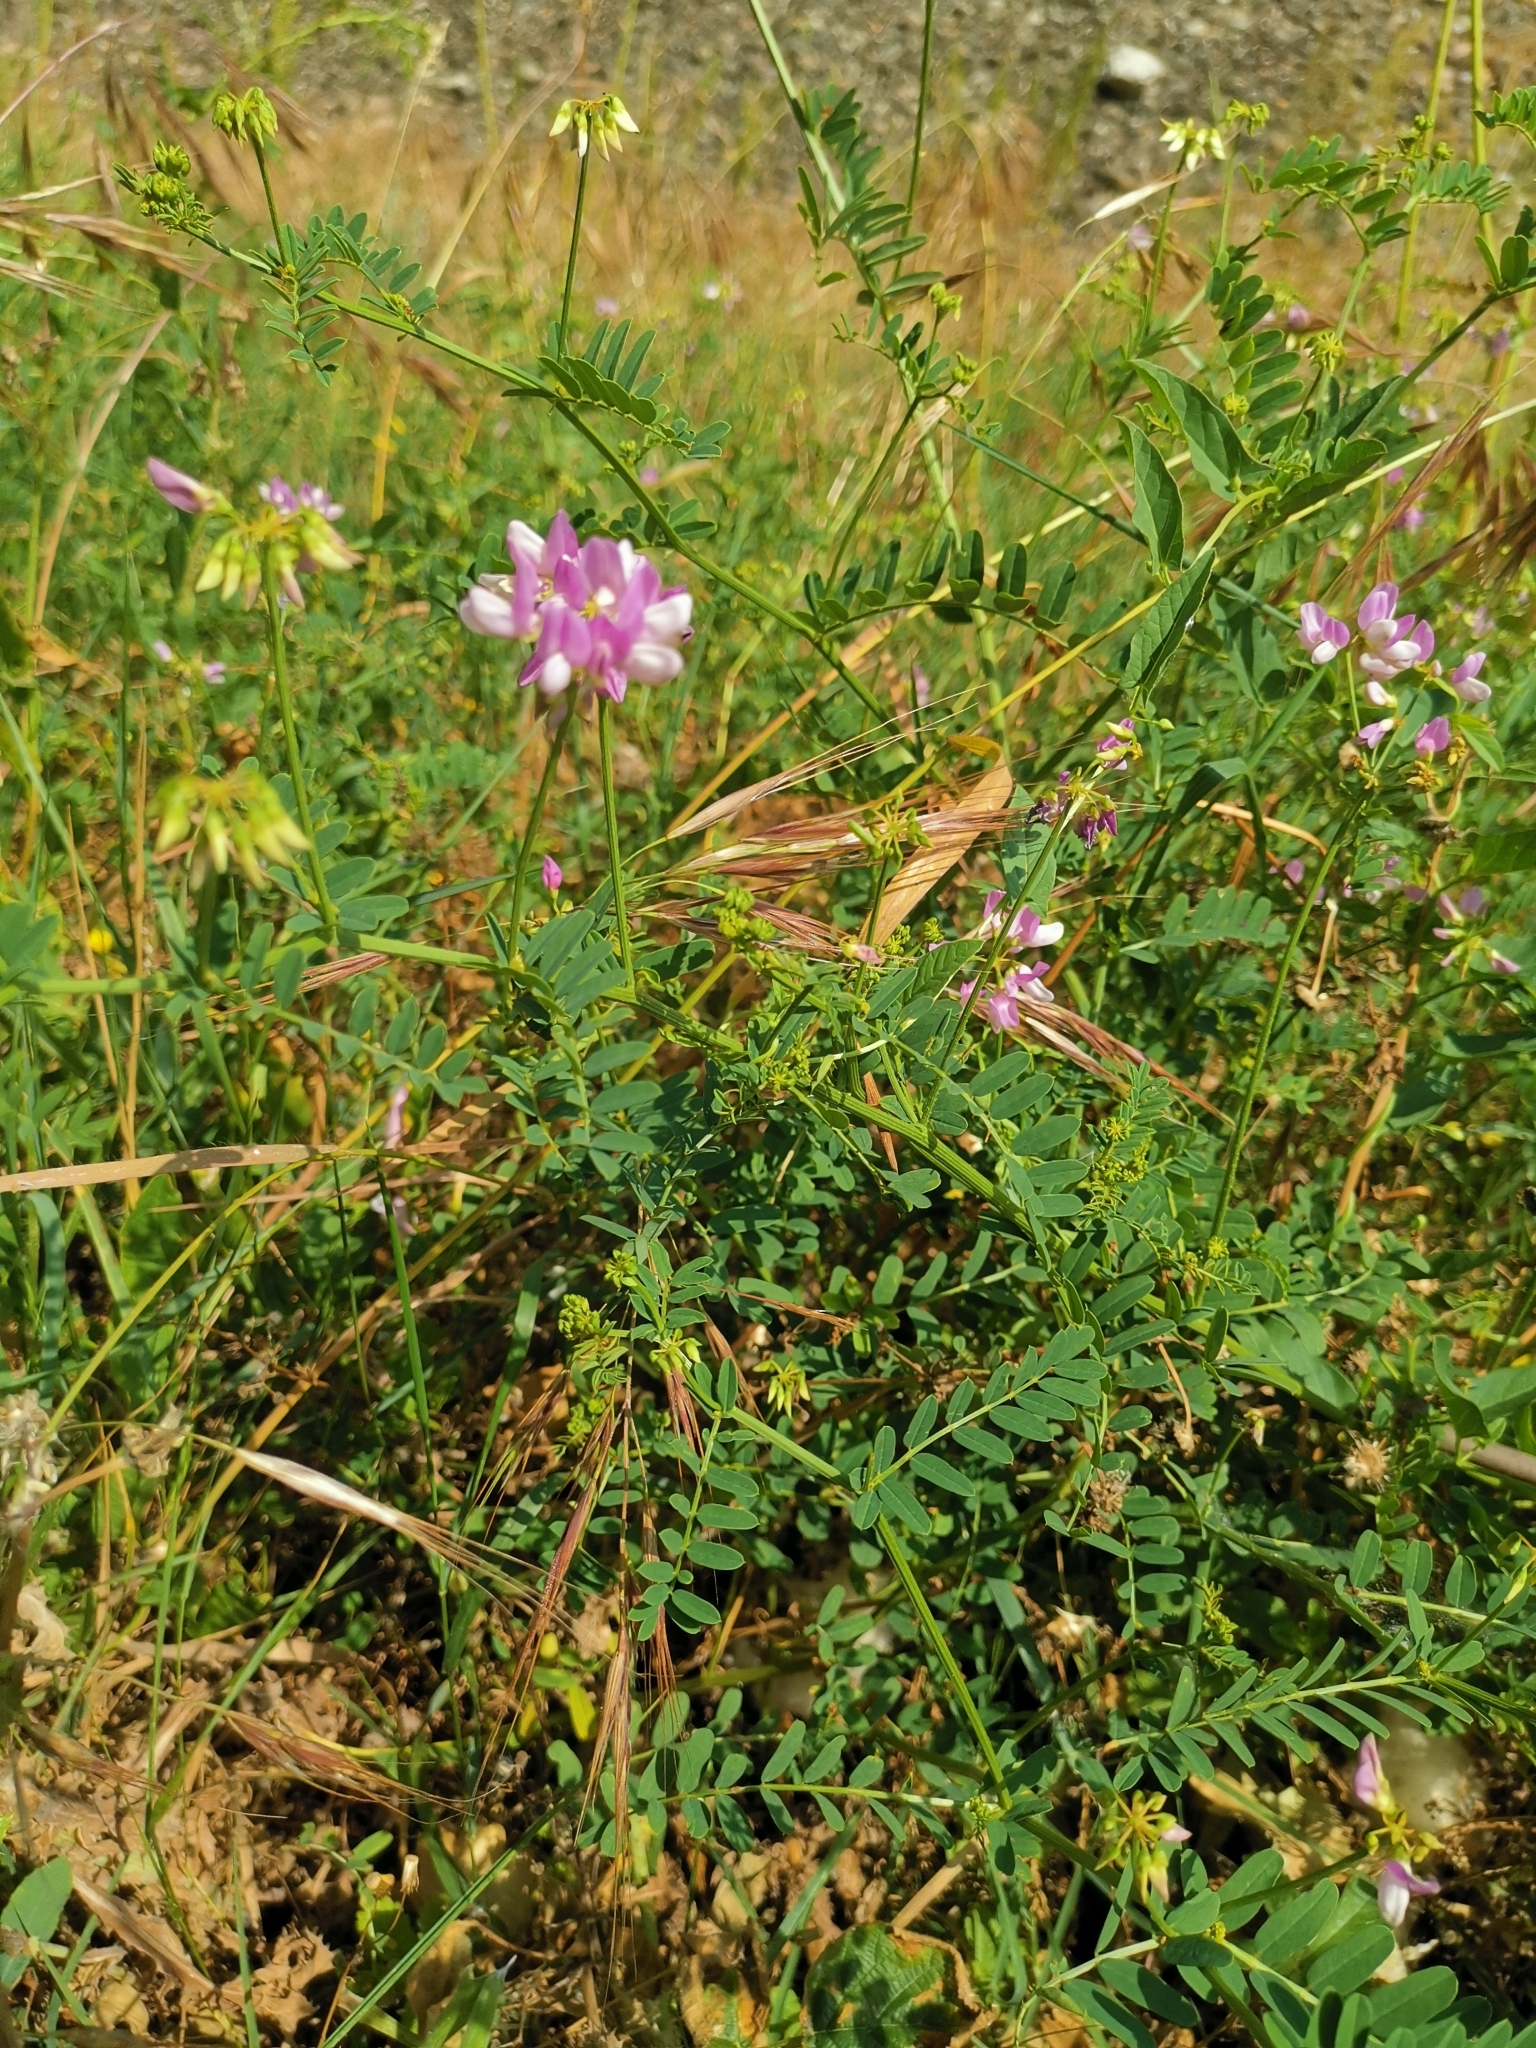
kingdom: Plantae
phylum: Tracheophyta
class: Magnoliopsida
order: Fabales
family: Fabaceae
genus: Coronilla
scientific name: Coronilla varia
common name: Crownvetch
